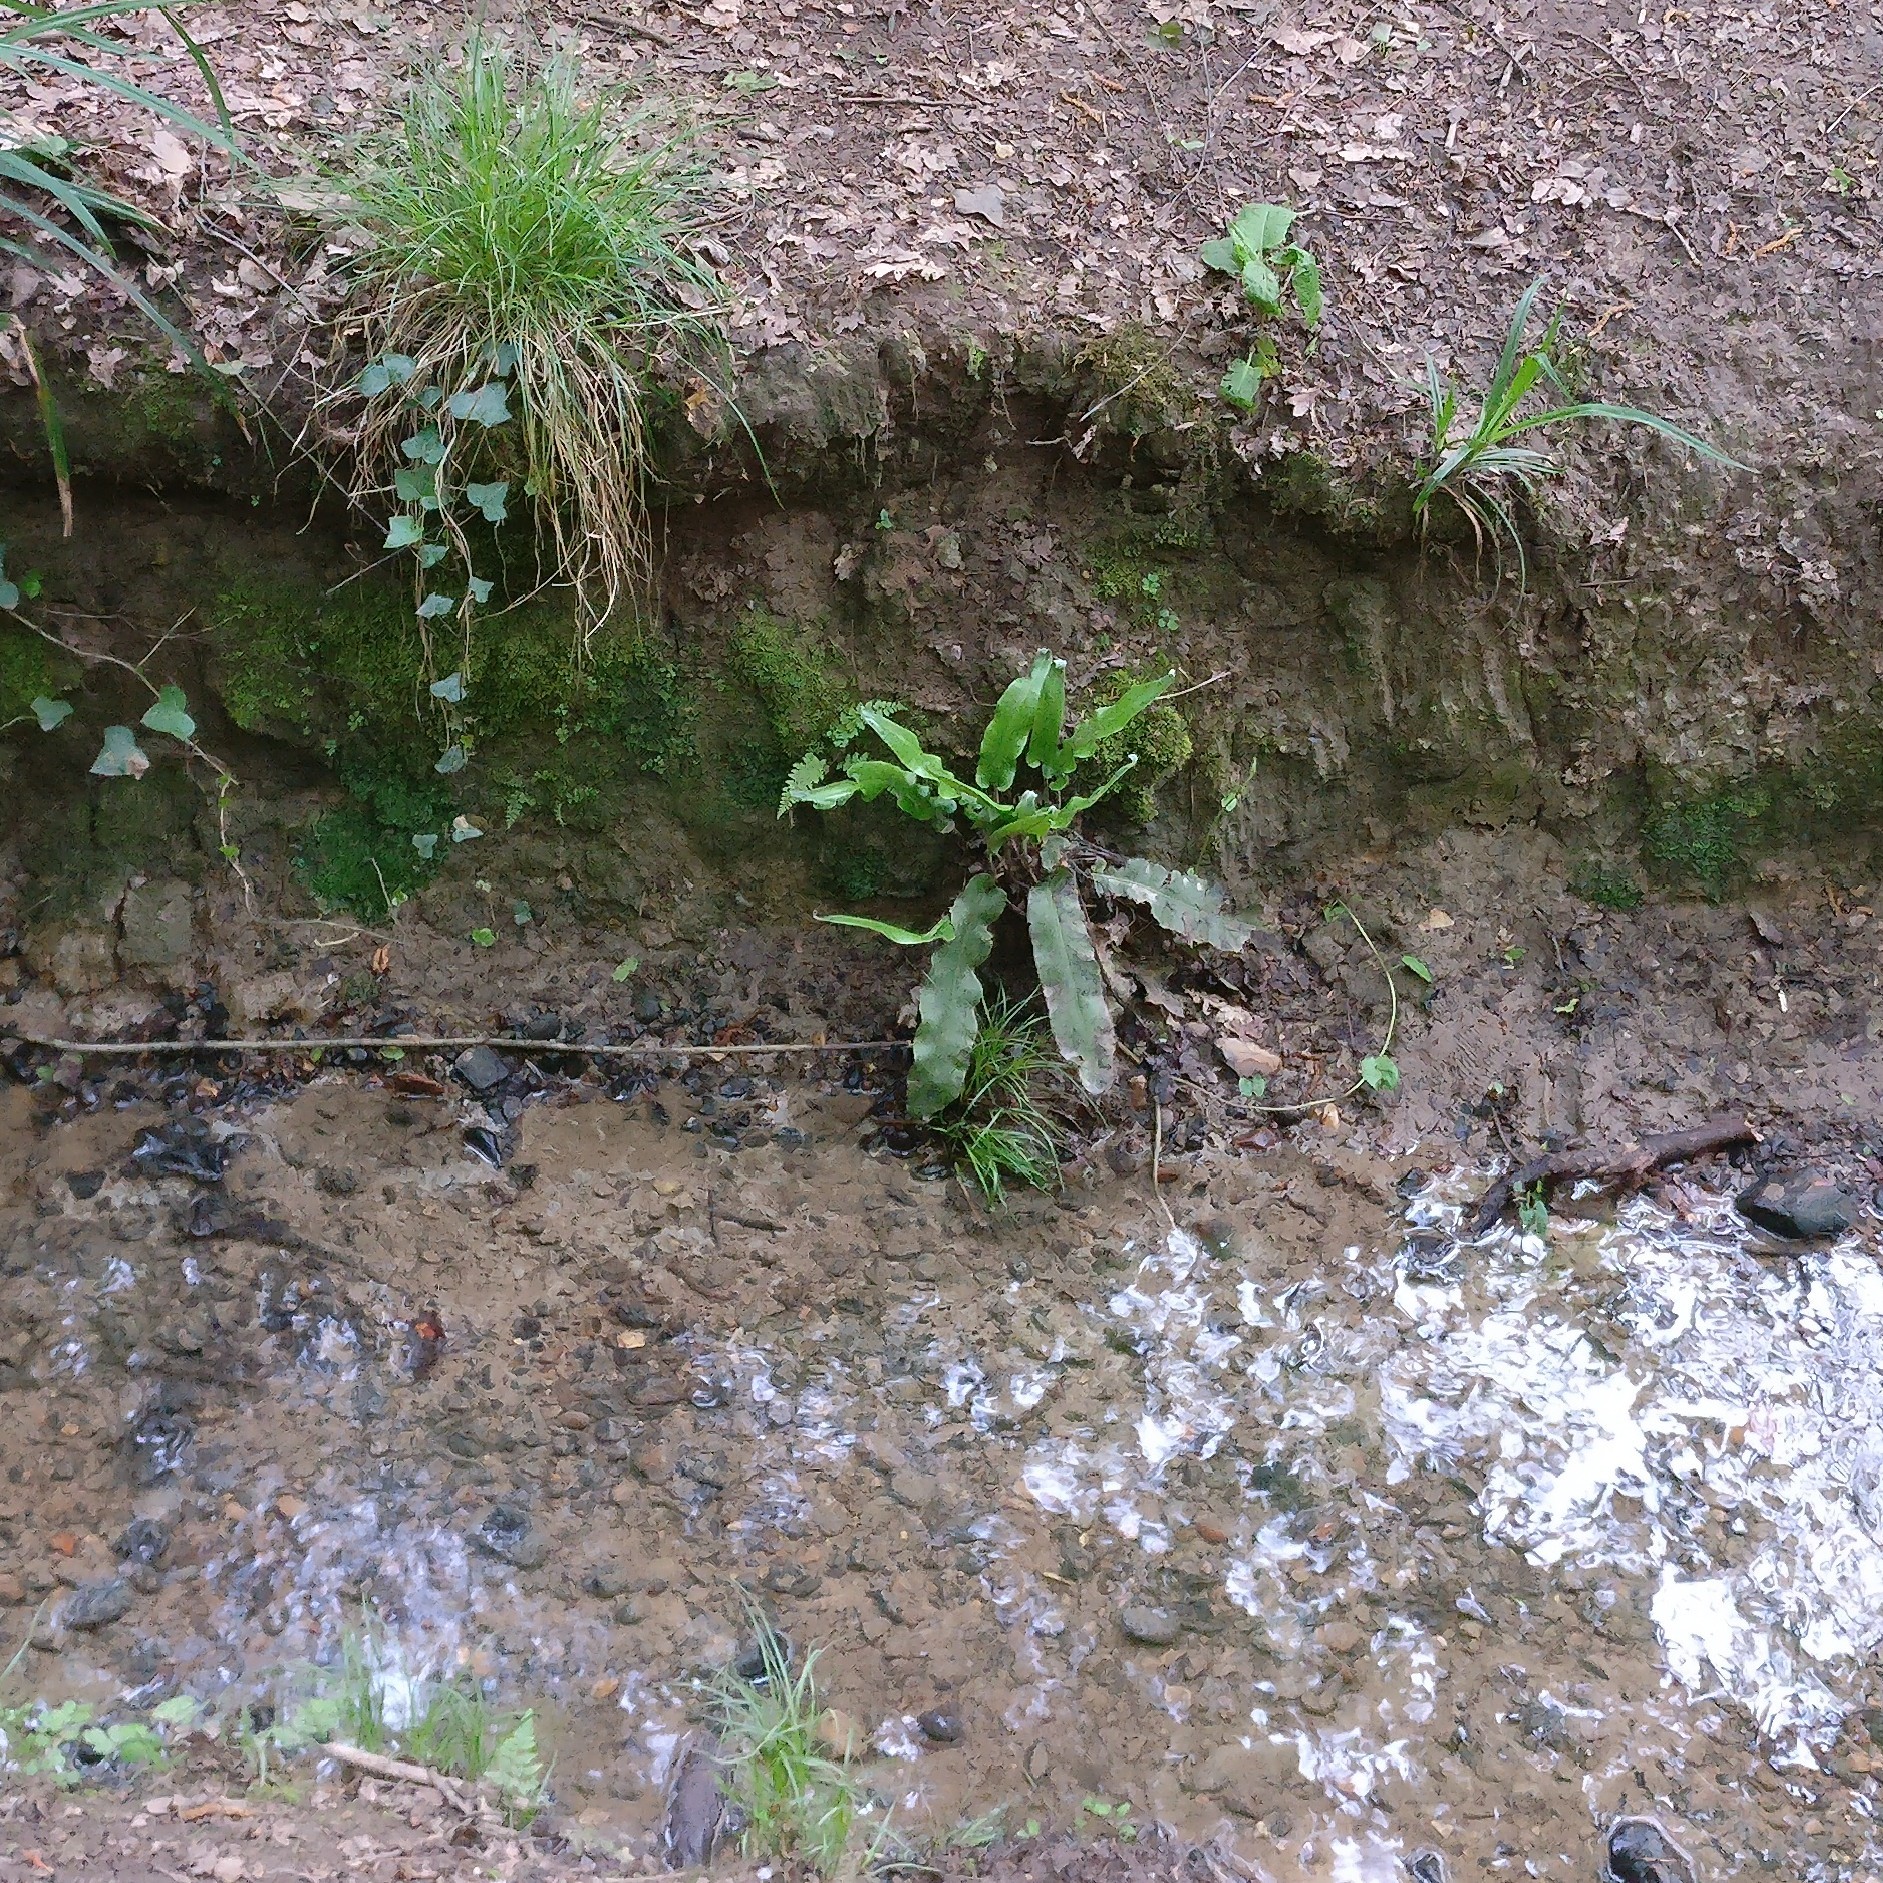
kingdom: Plantae
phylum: Tracheophyta
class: Polypodiopsida
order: Polypodiales
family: Aspleniaceae
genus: Asplenium
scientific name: Asplenium scolopendrium
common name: Hart's-tongue fern
